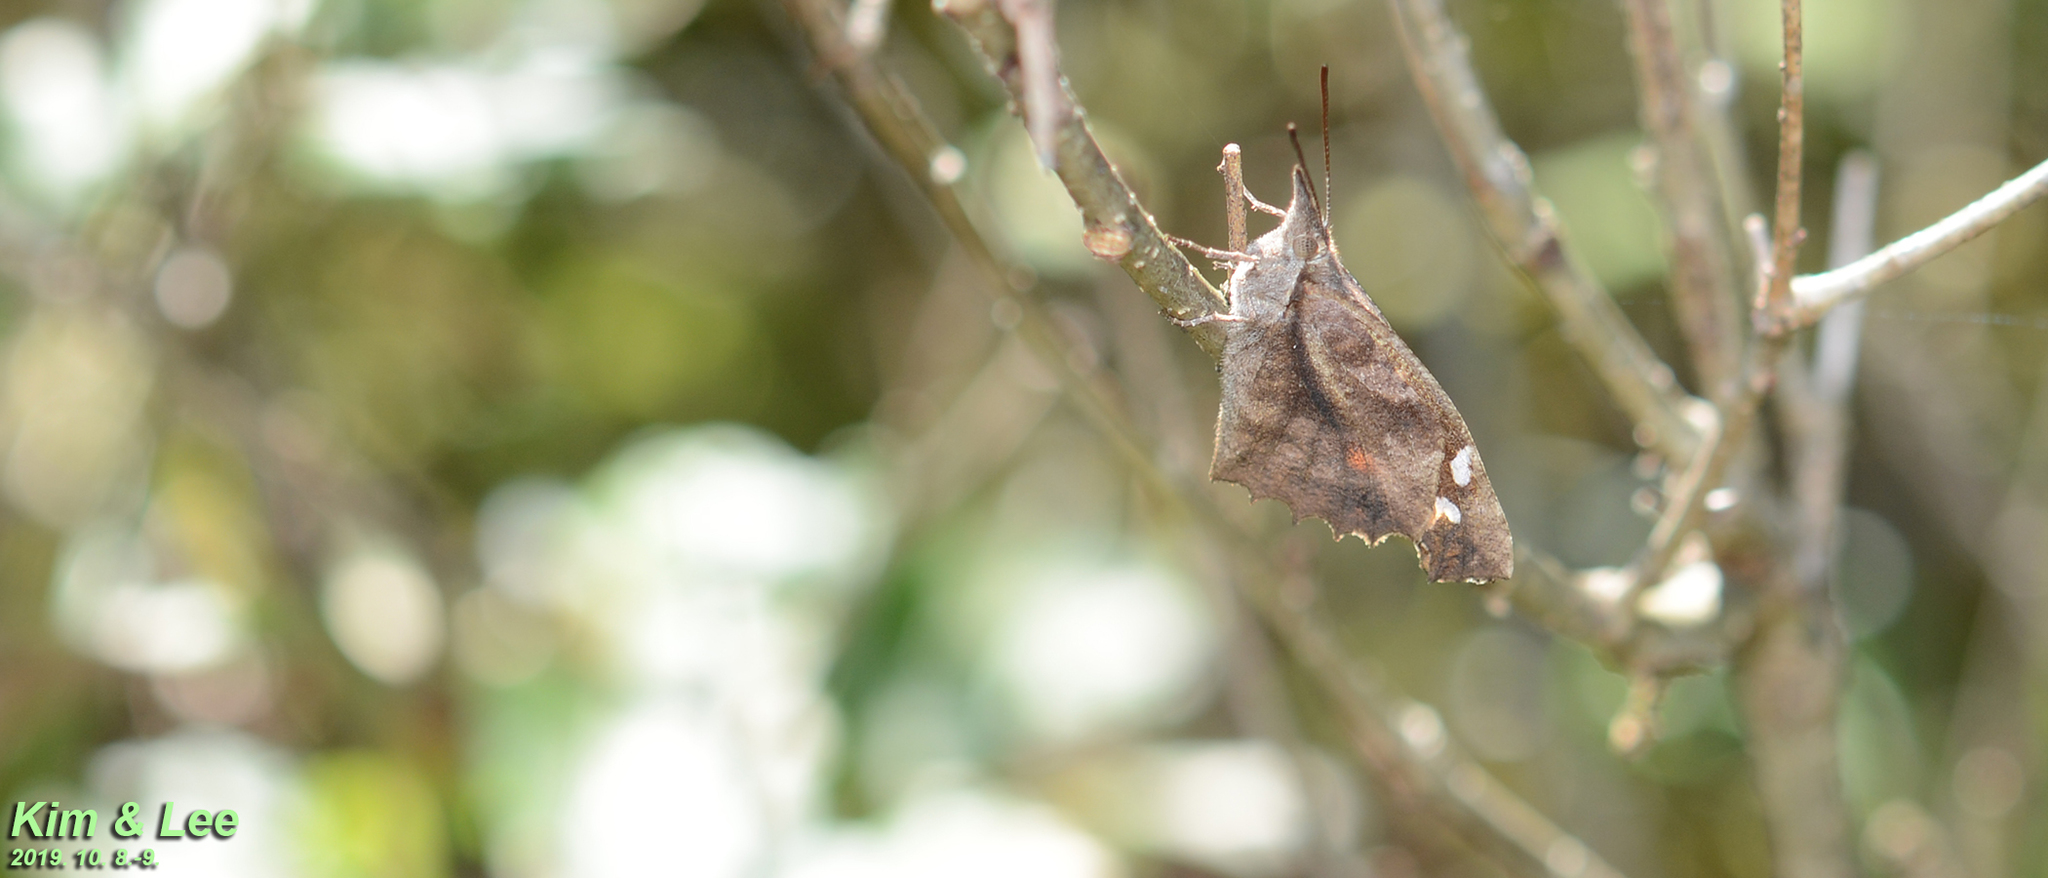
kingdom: Animalia
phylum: Arthropoda
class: Insecta
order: Lepidoptera
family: Nymphalidae
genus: Libythea
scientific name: Libythea lepita
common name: Common beak
